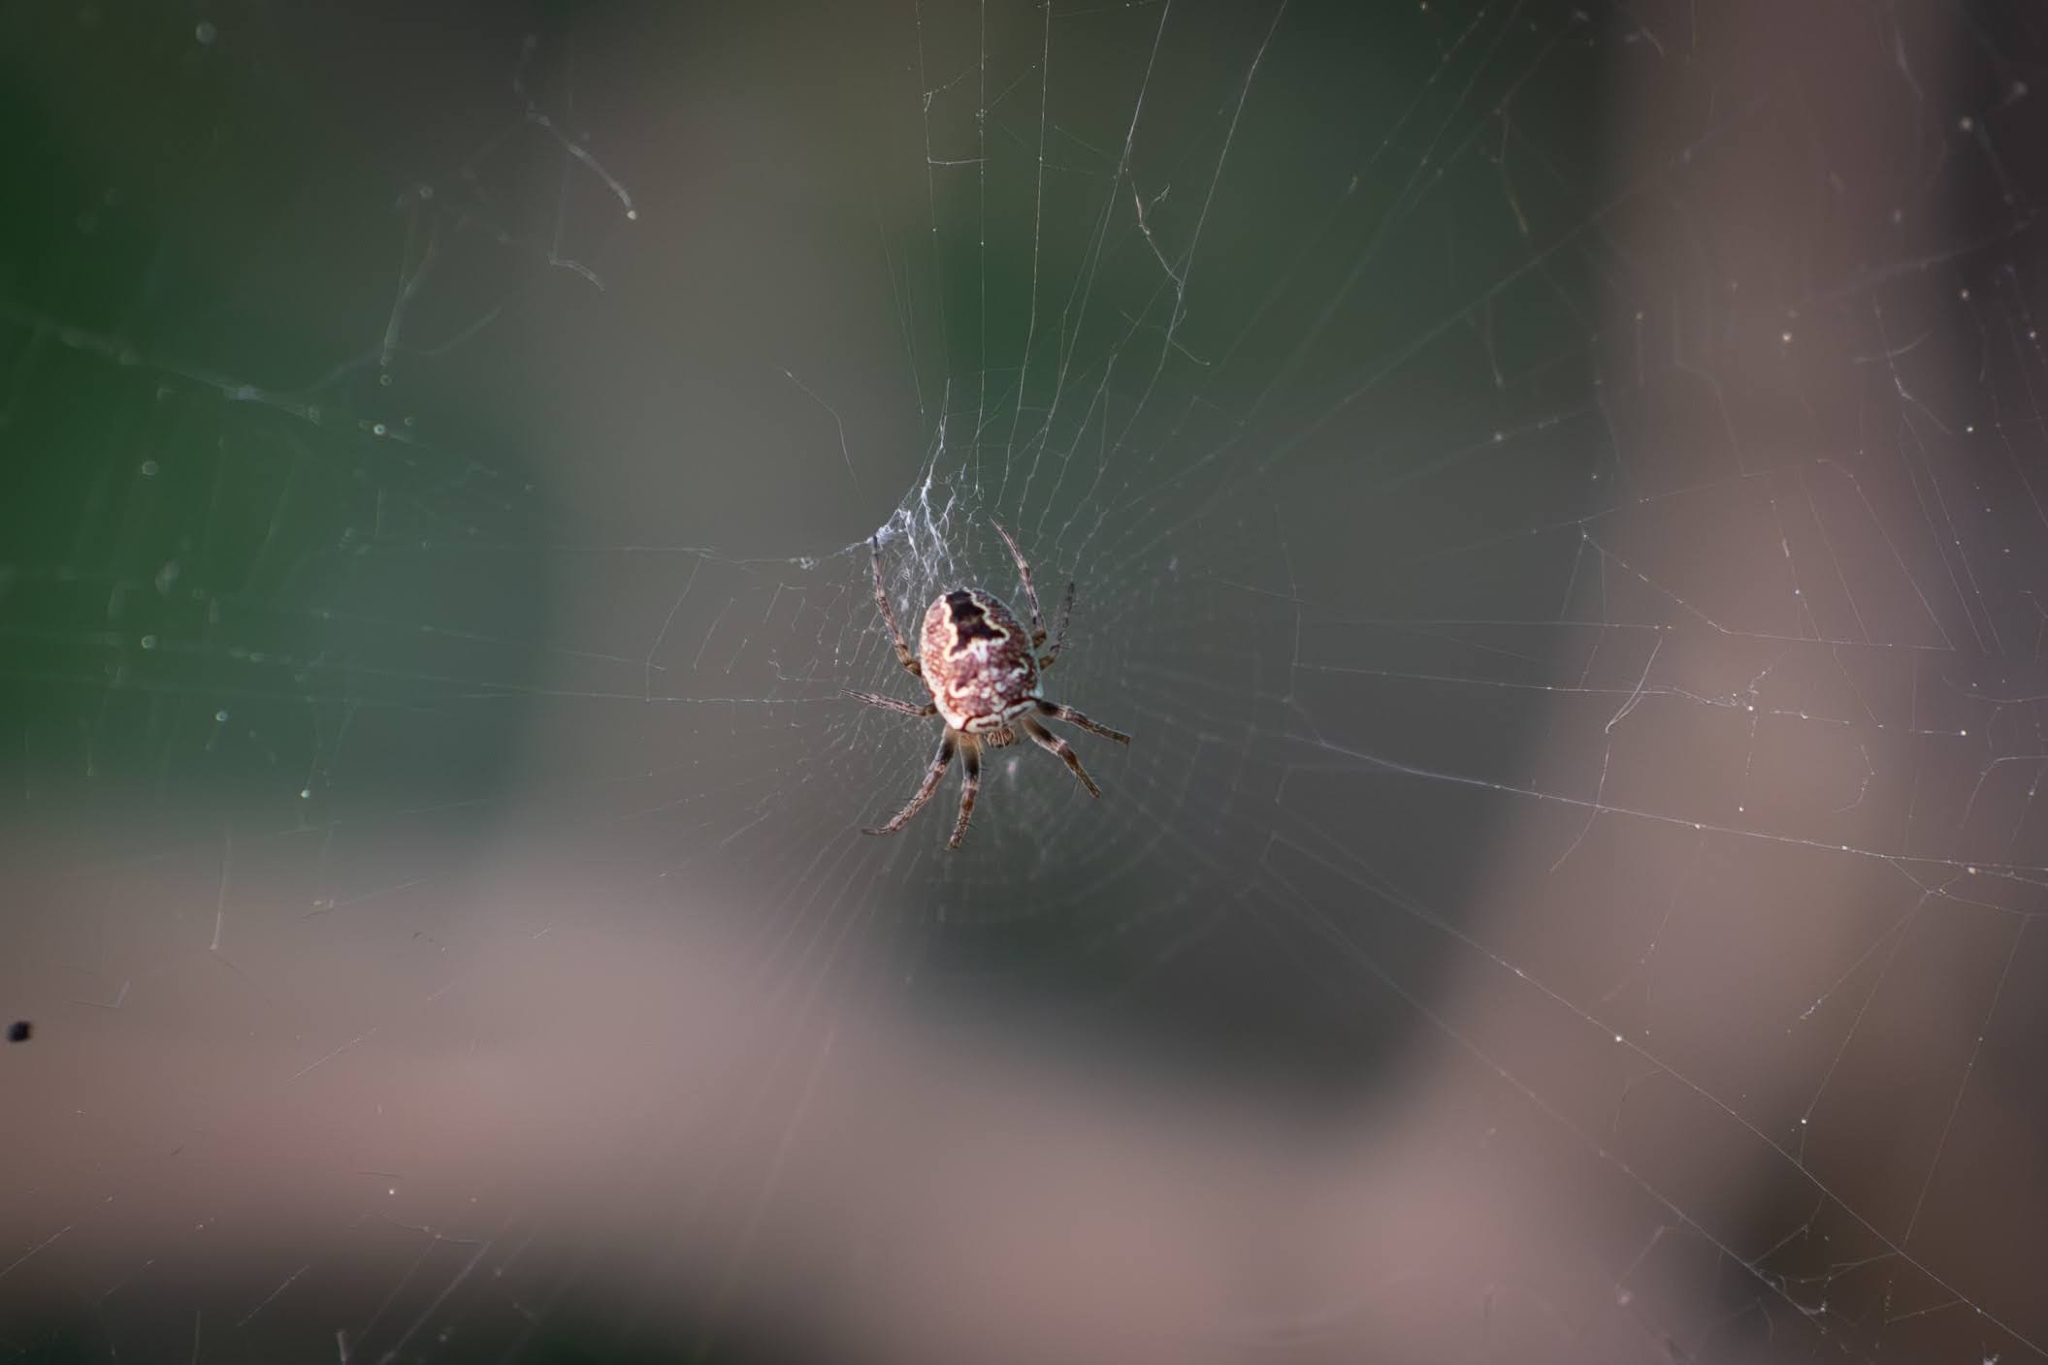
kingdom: Animalia
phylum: Arthropoda
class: Arachnida
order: Araneae
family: Araneidae
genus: Zilla
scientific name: Zilla diodia
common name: Zilla diodia
